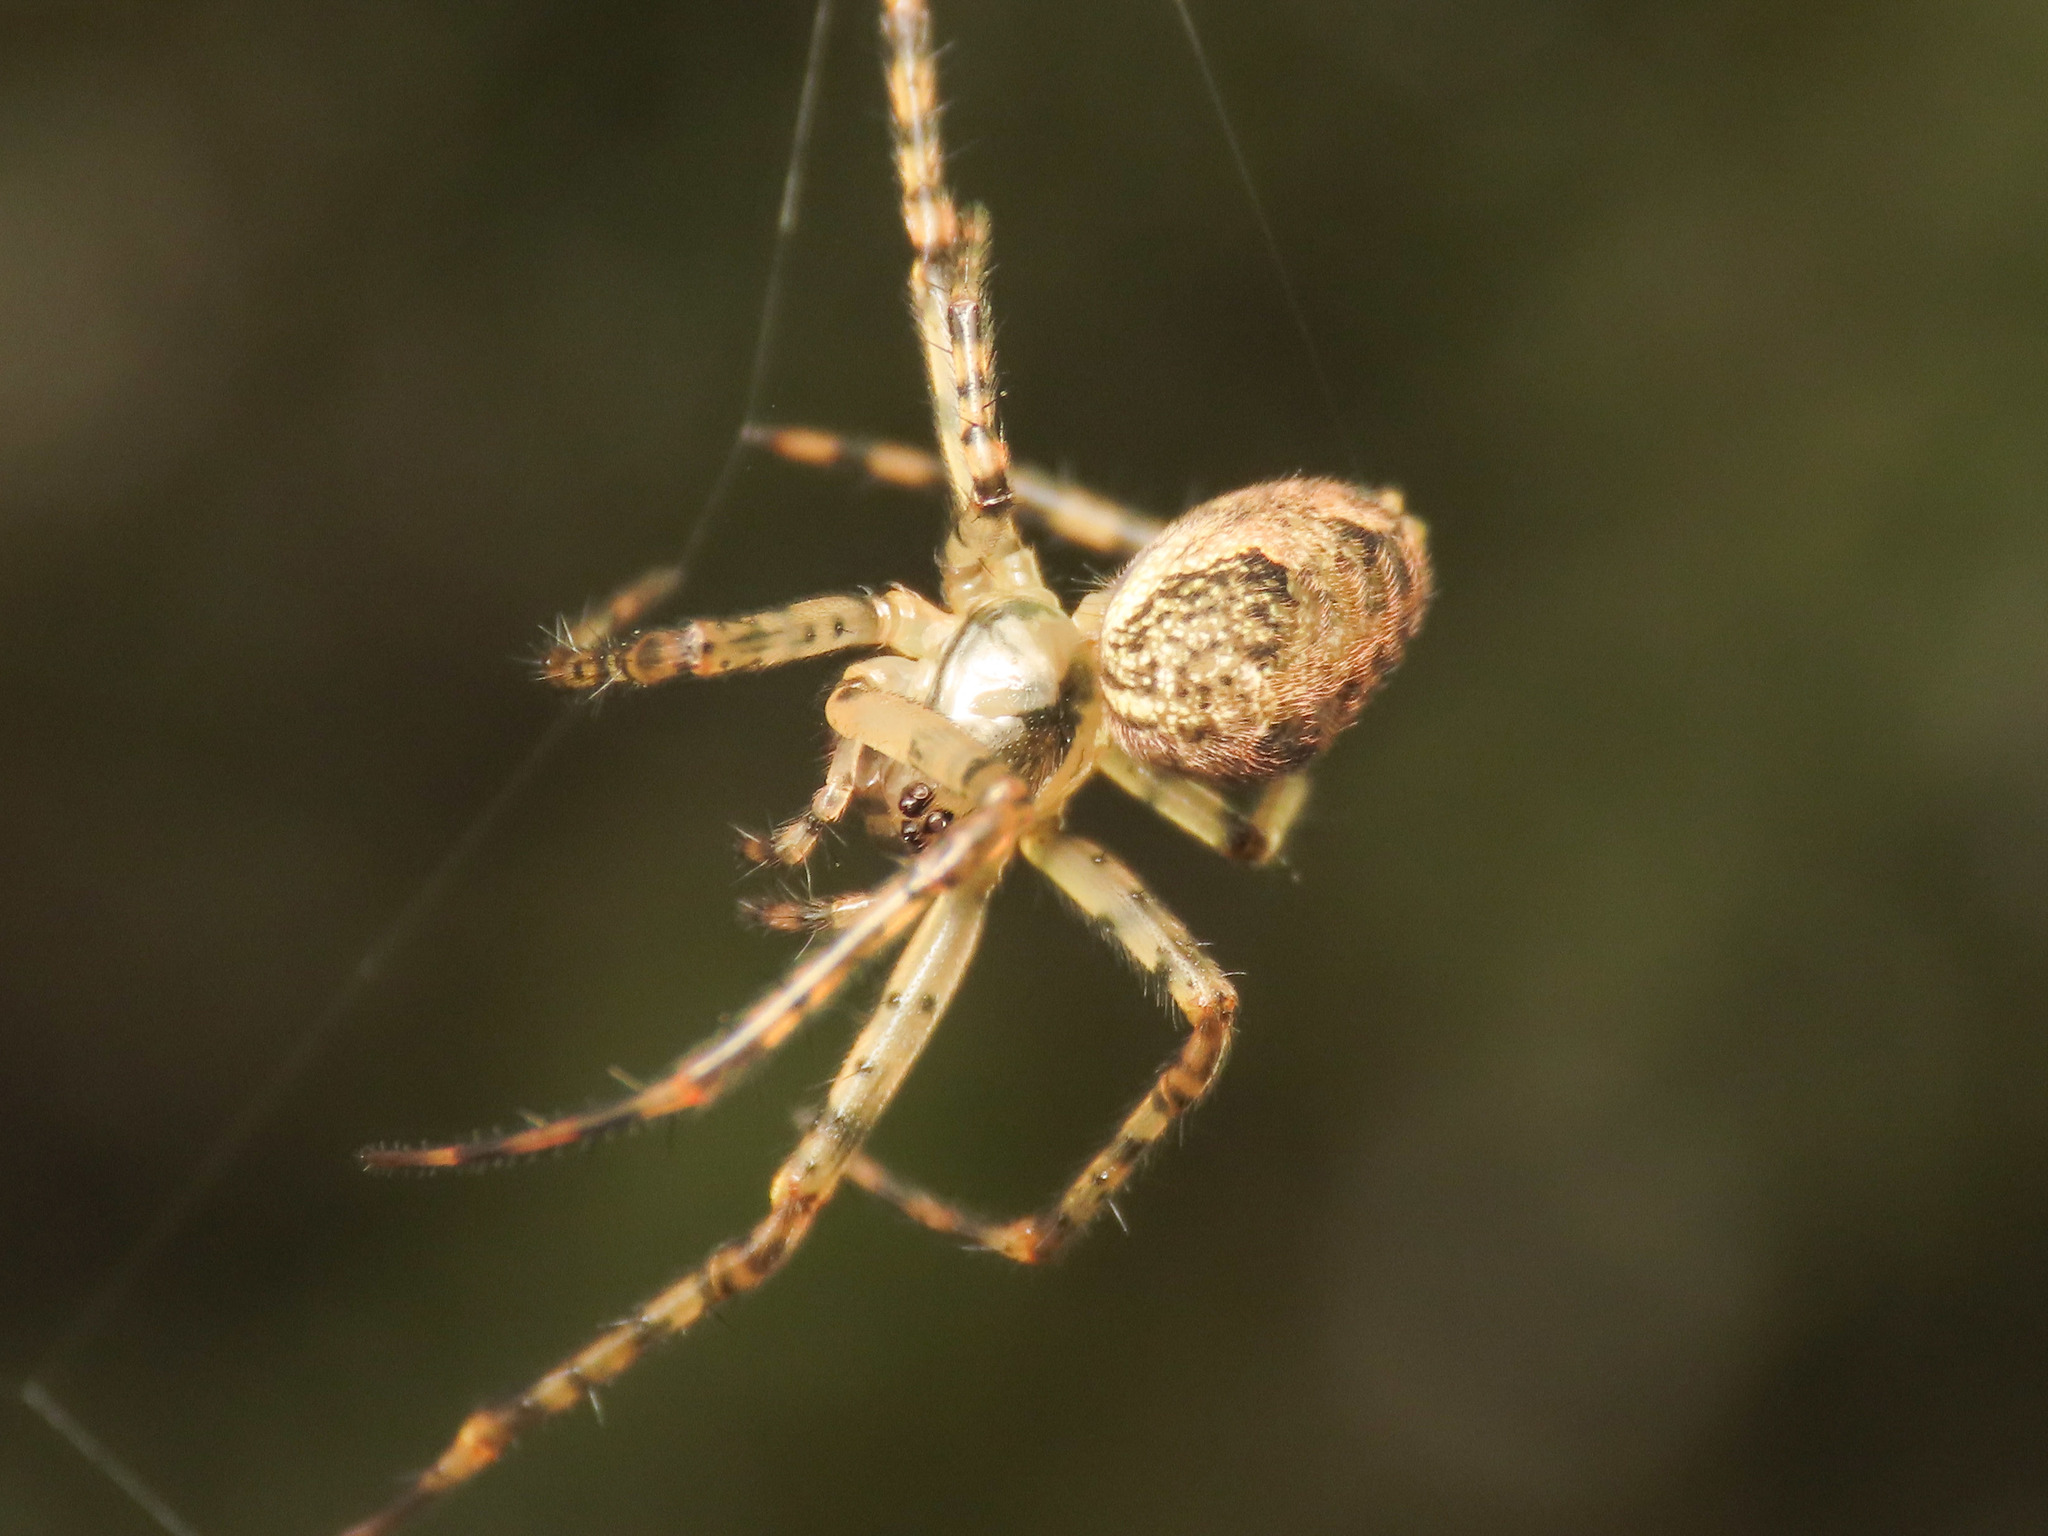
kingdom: Animalia
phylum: Arthropoda
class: Arachnida
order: Araneae
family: Tetragnathidae
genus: Metellina
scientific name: Metellina merianae
